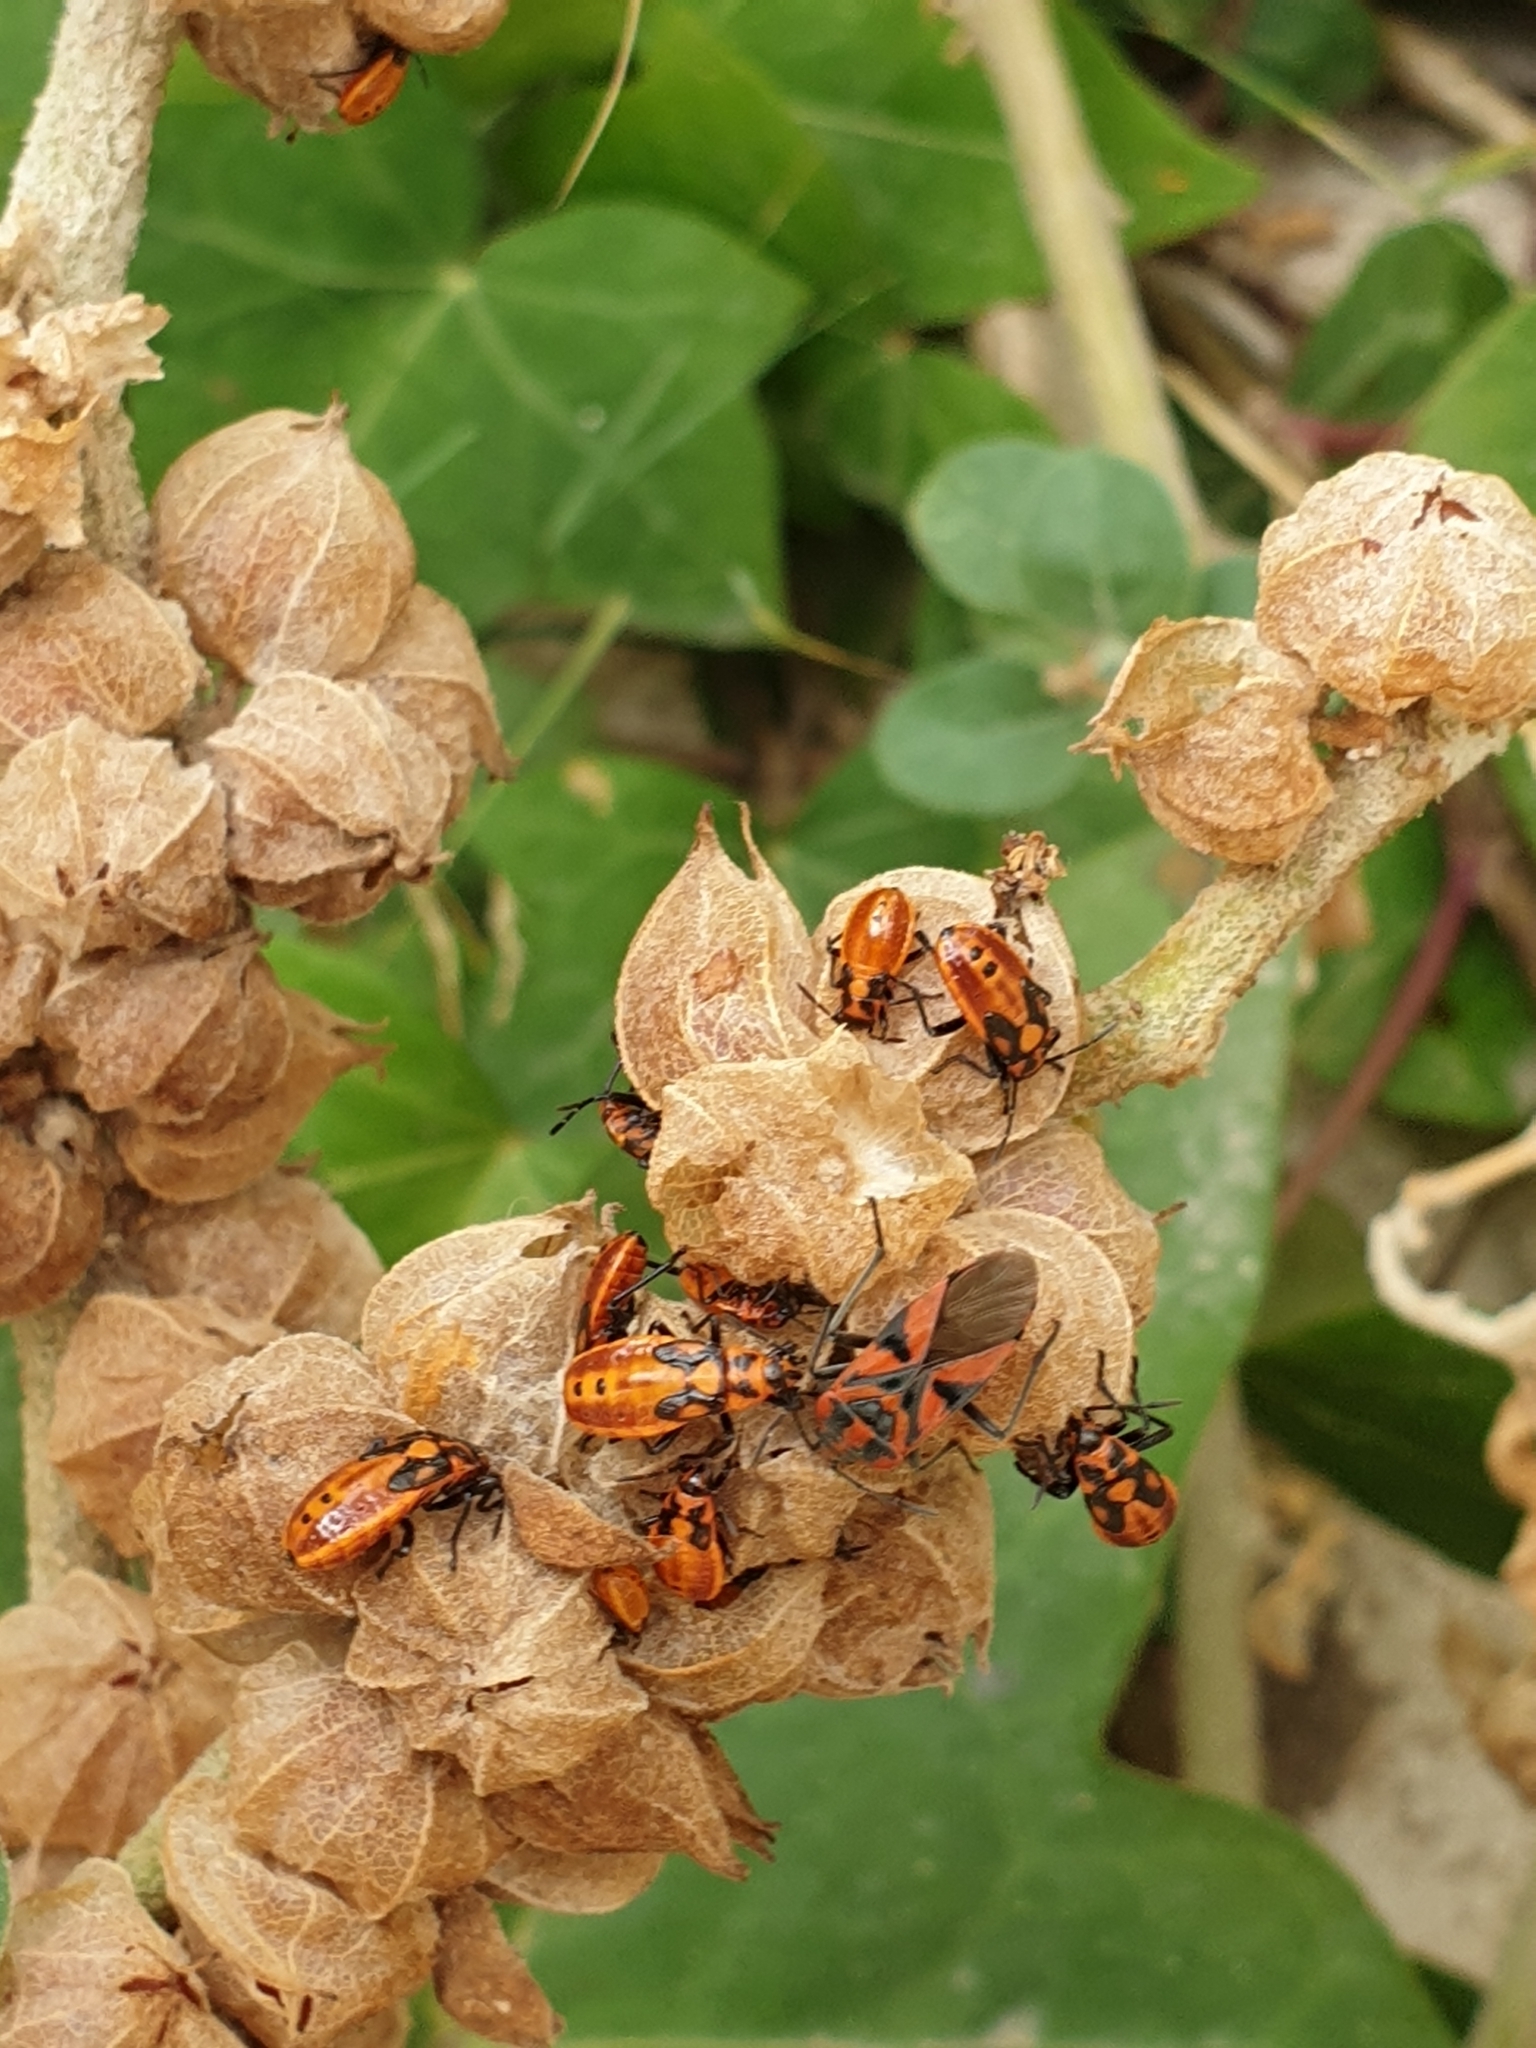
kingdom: Animalia
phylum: Arthropoda
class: Insecta
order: Hemiptera
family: Lygaeidae
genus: Spilostethus
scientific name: Spilostethus furcula
